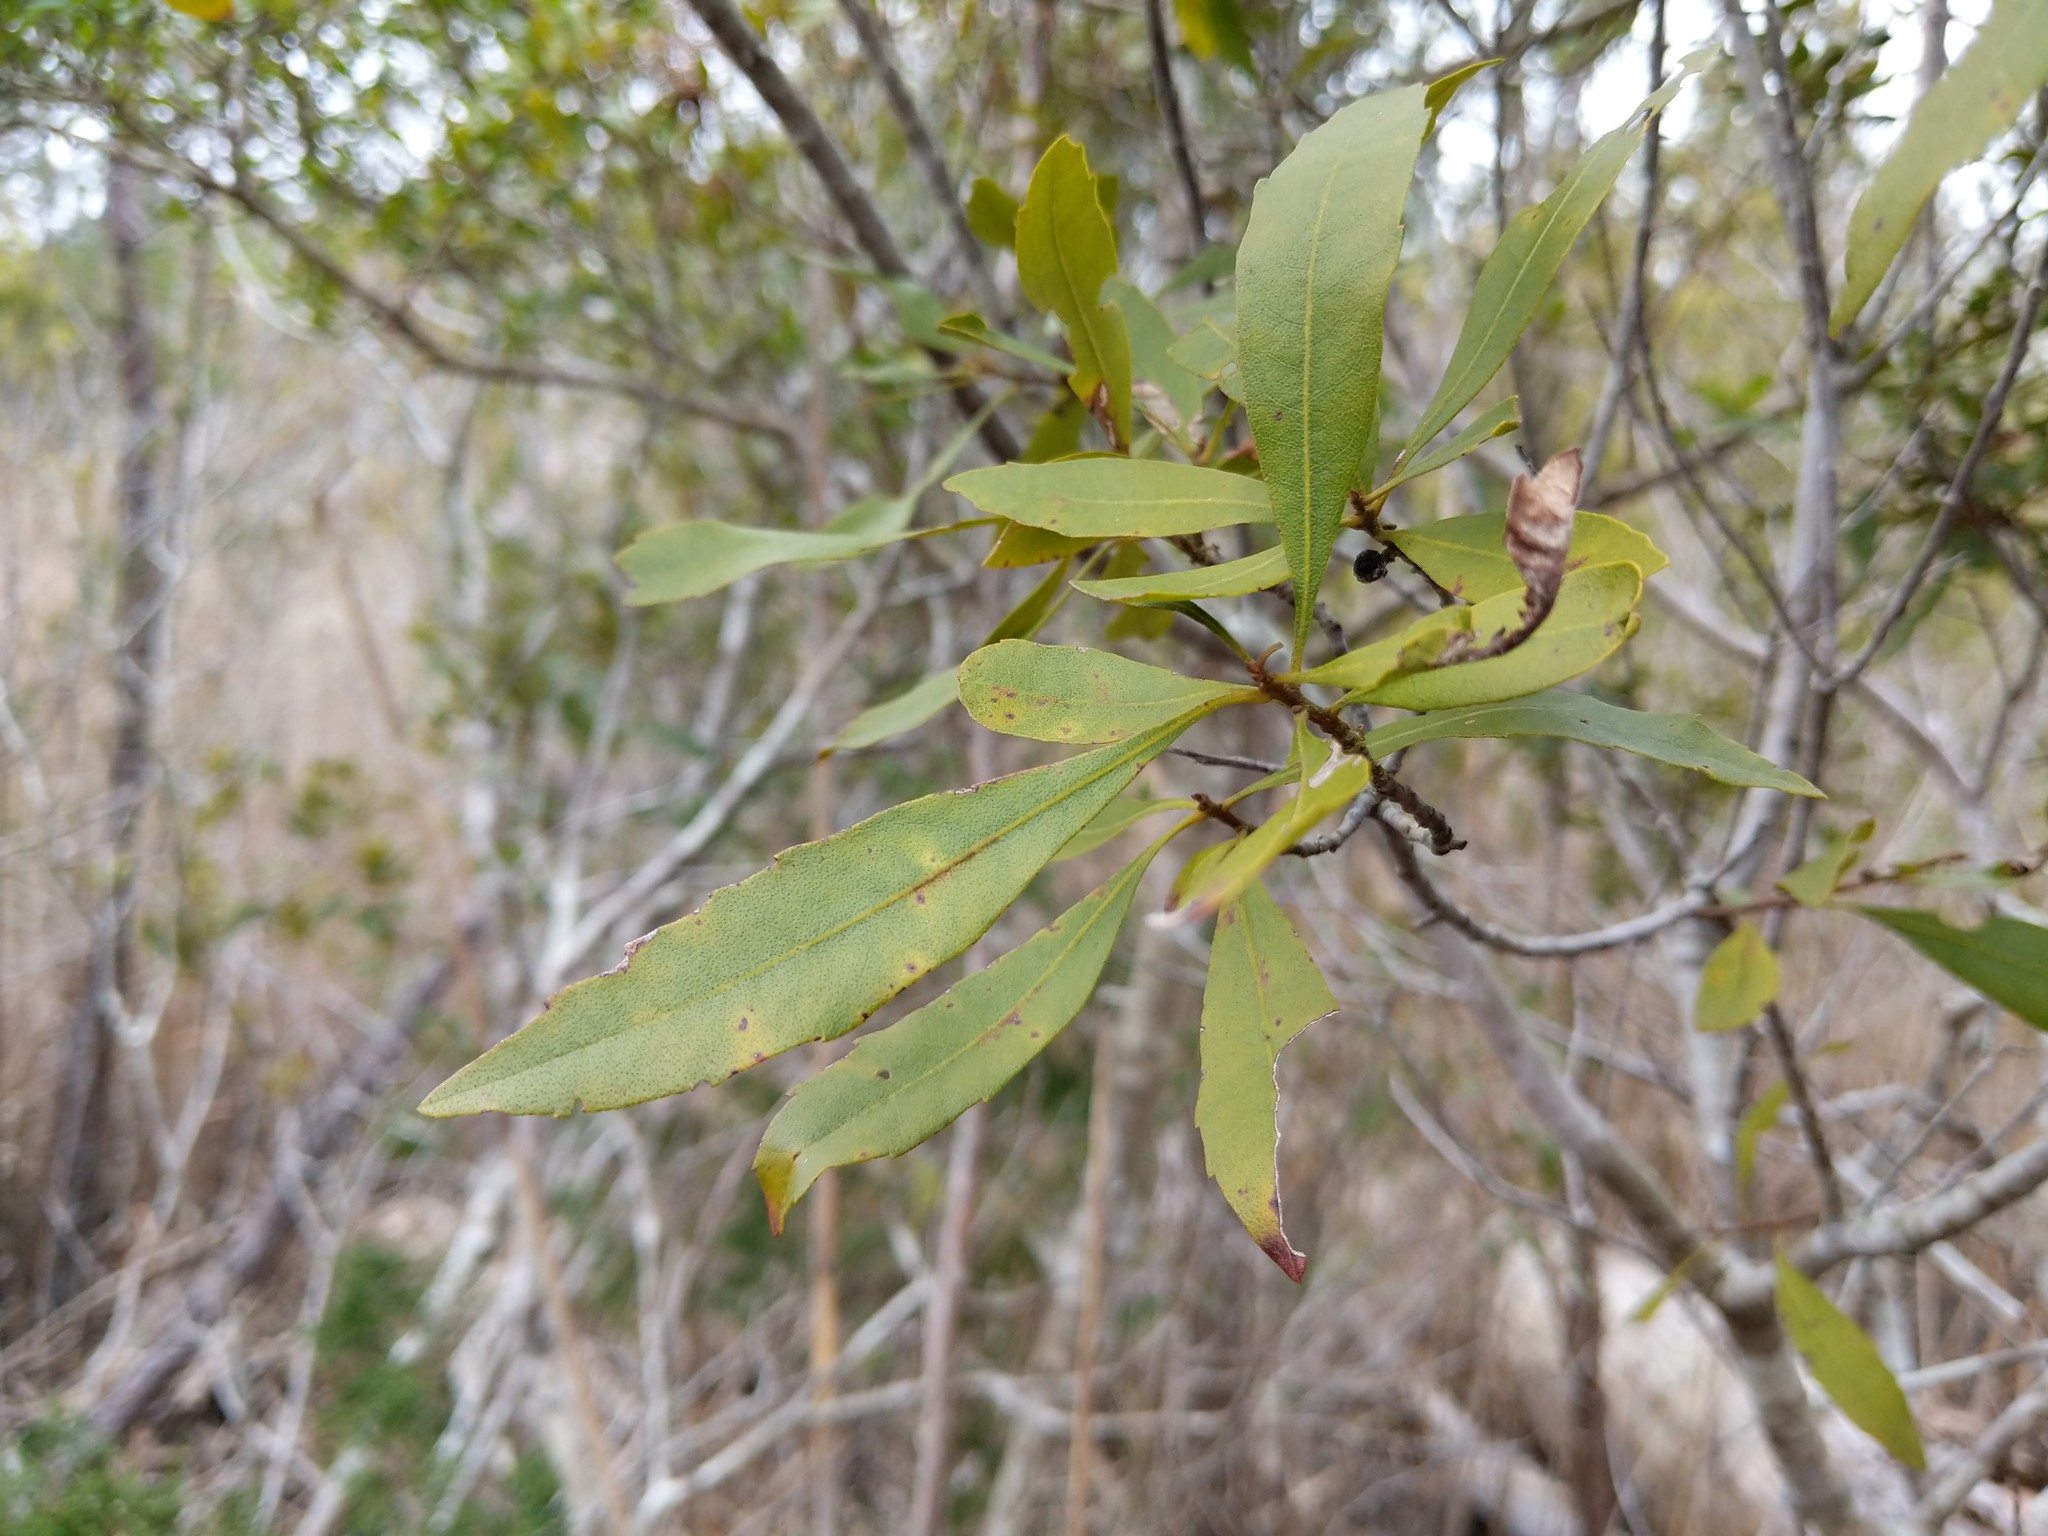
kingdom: Plantae
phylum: Tracheophyta
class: Magnoliopsida
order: Fagales
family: Myricaceae
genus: Morella
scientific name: Morella cerifera
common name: Wax myrtle
